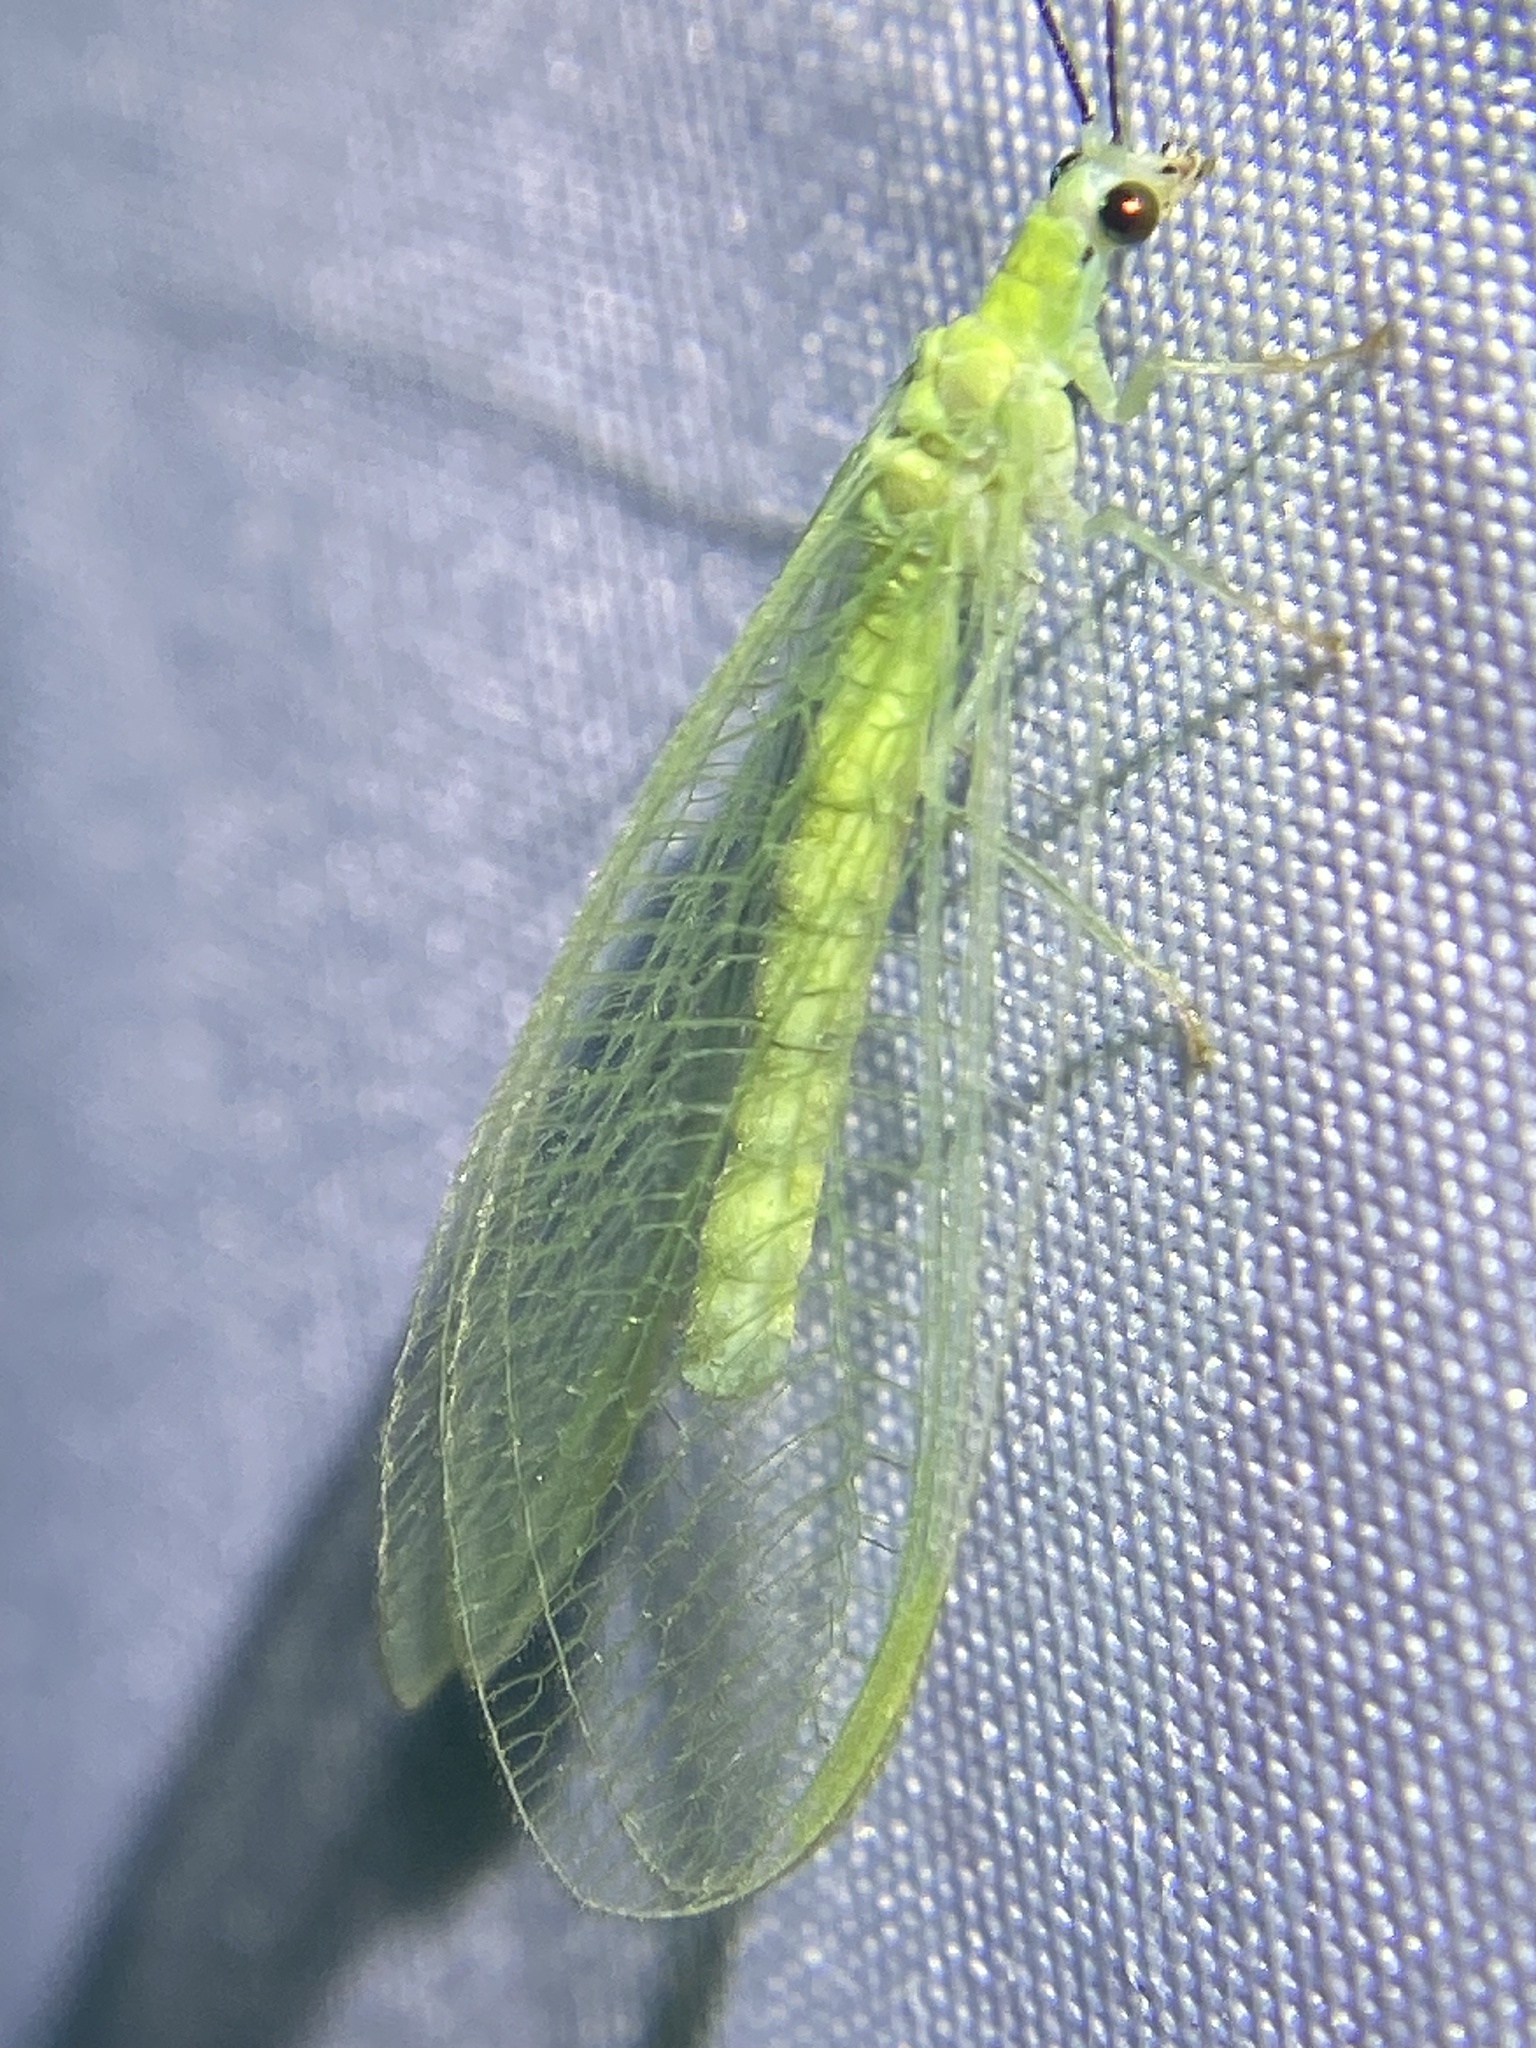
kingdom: Animalia
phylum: Arthropoda
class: Insecta
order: Neuroptera
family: Chrysopidae
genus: Chrysopa
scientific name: Chrysopa nigricornis
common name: Black-horned green lacewing
